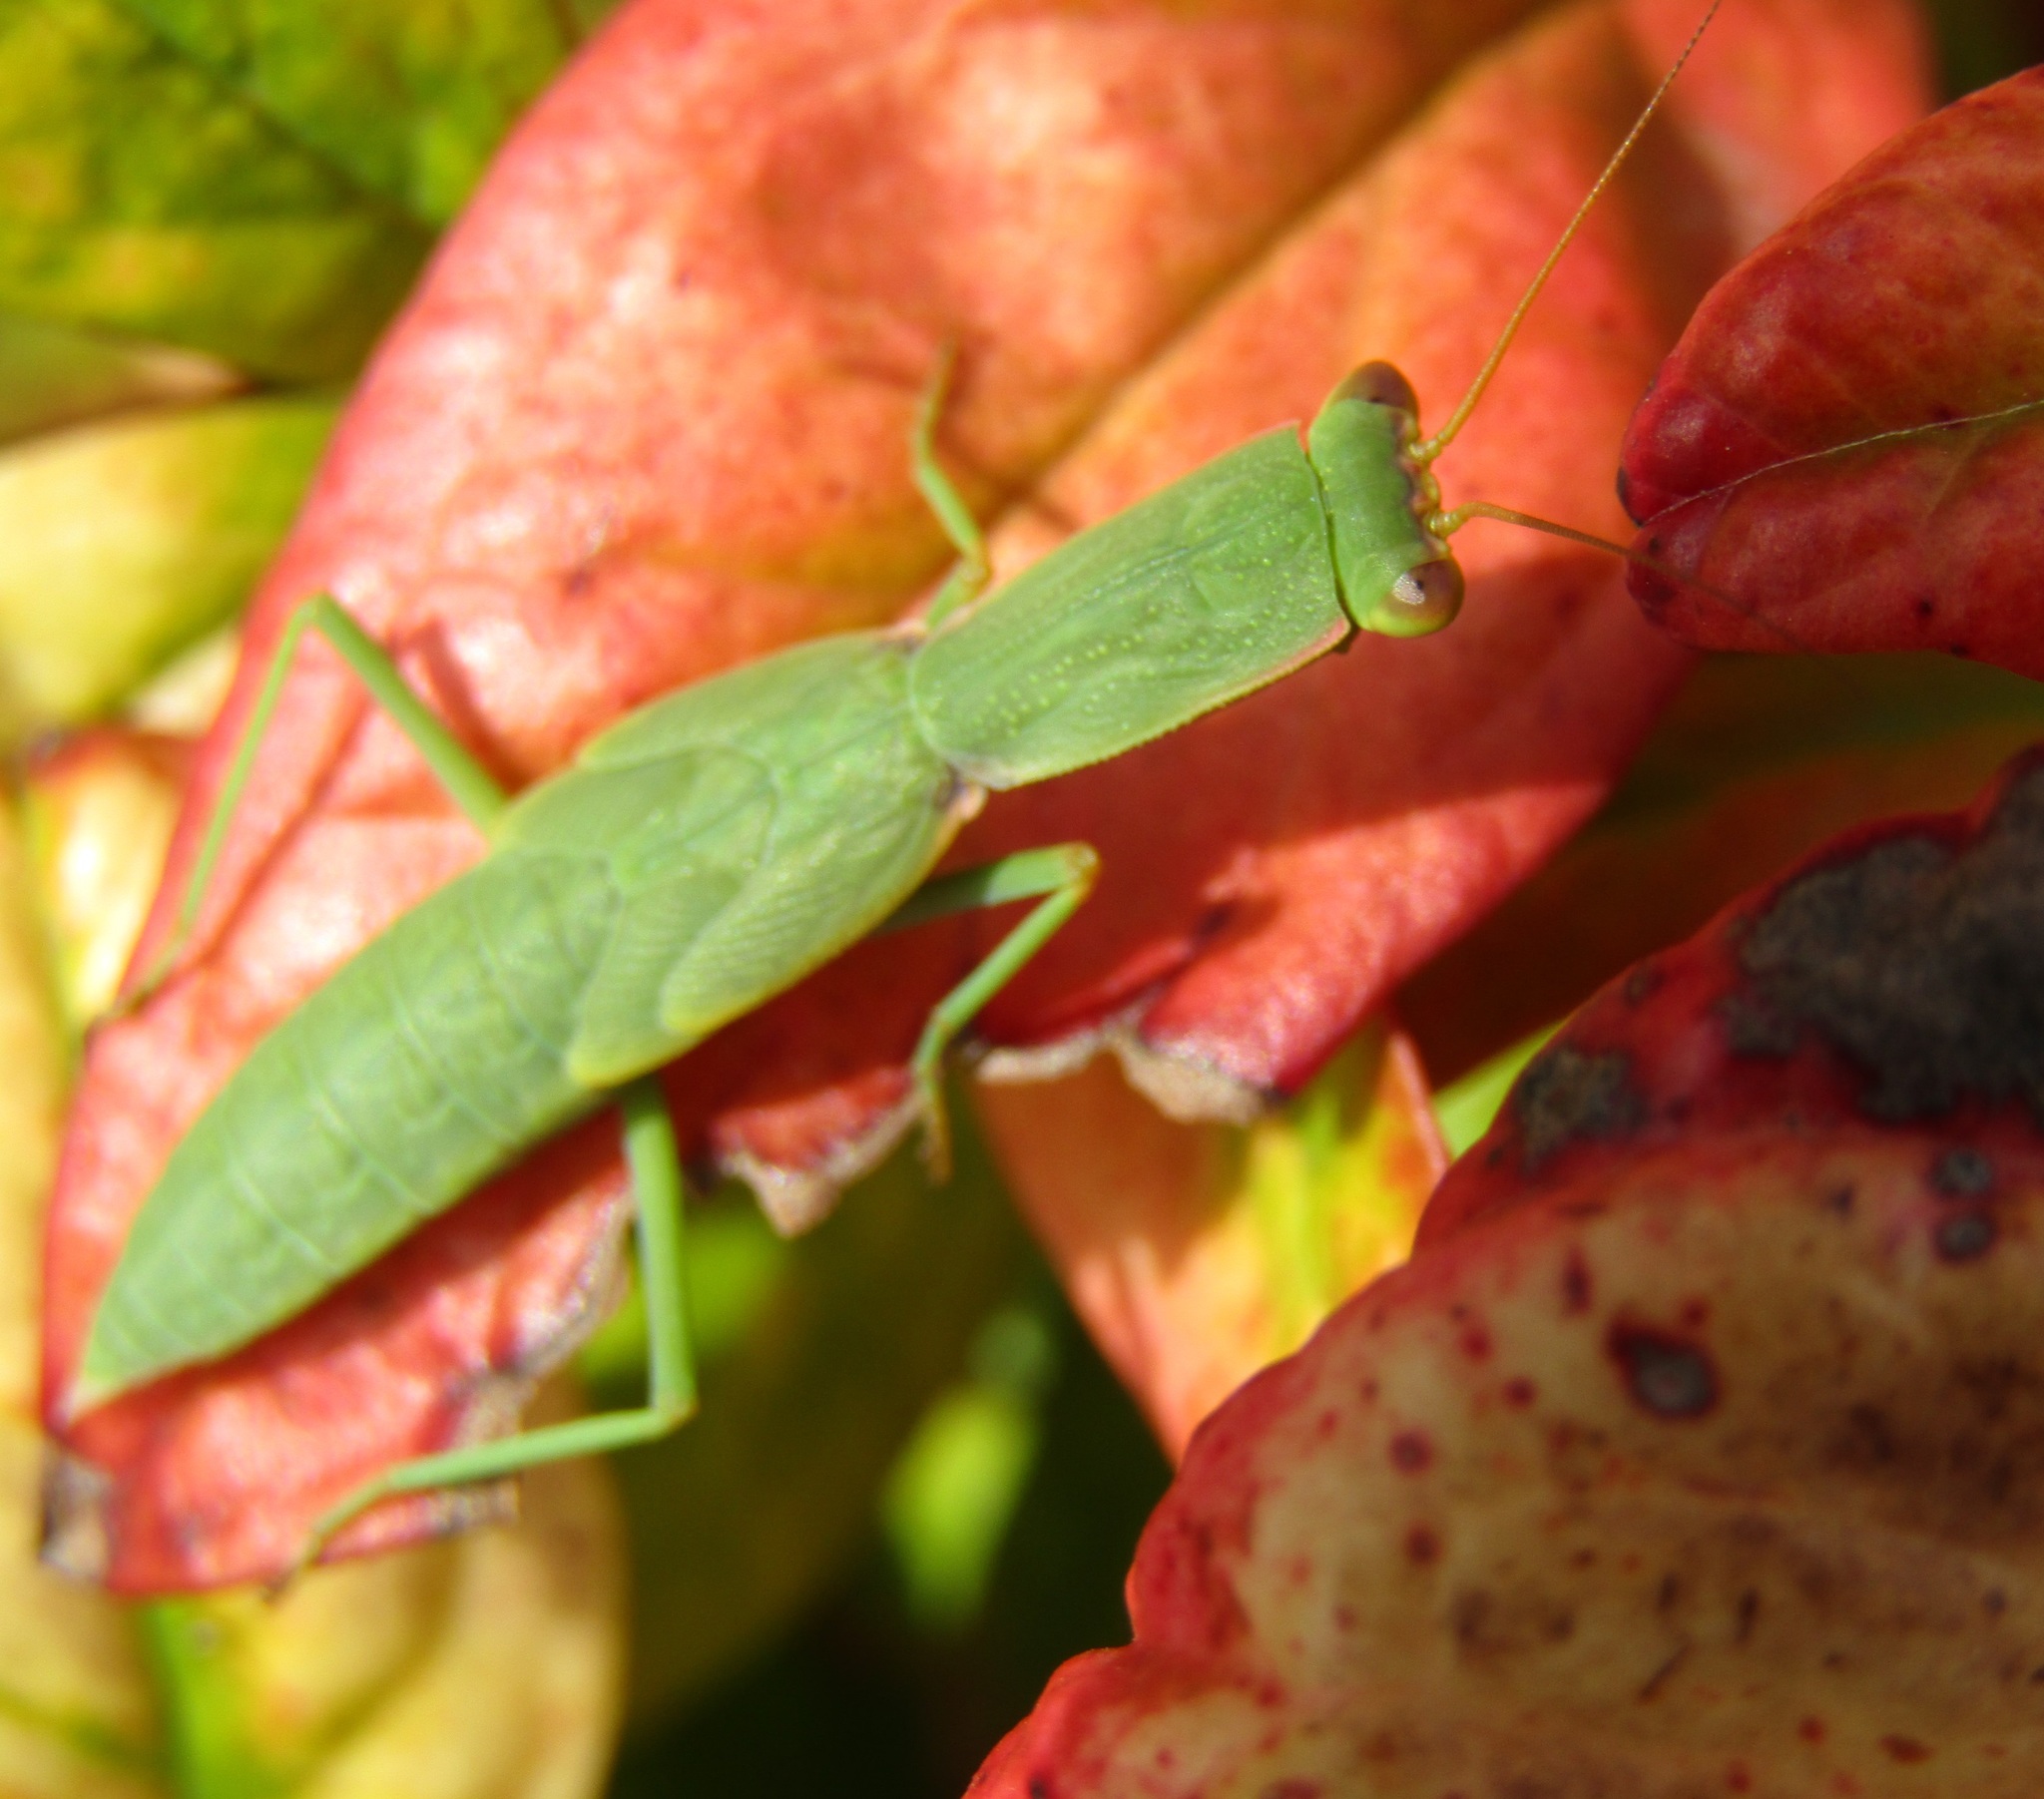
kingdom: Animalia
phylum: Arthropoda
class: Insecta
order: Mantodea
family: Mantidae
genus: Orthodera
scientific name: Orthodera novaezealandiae
